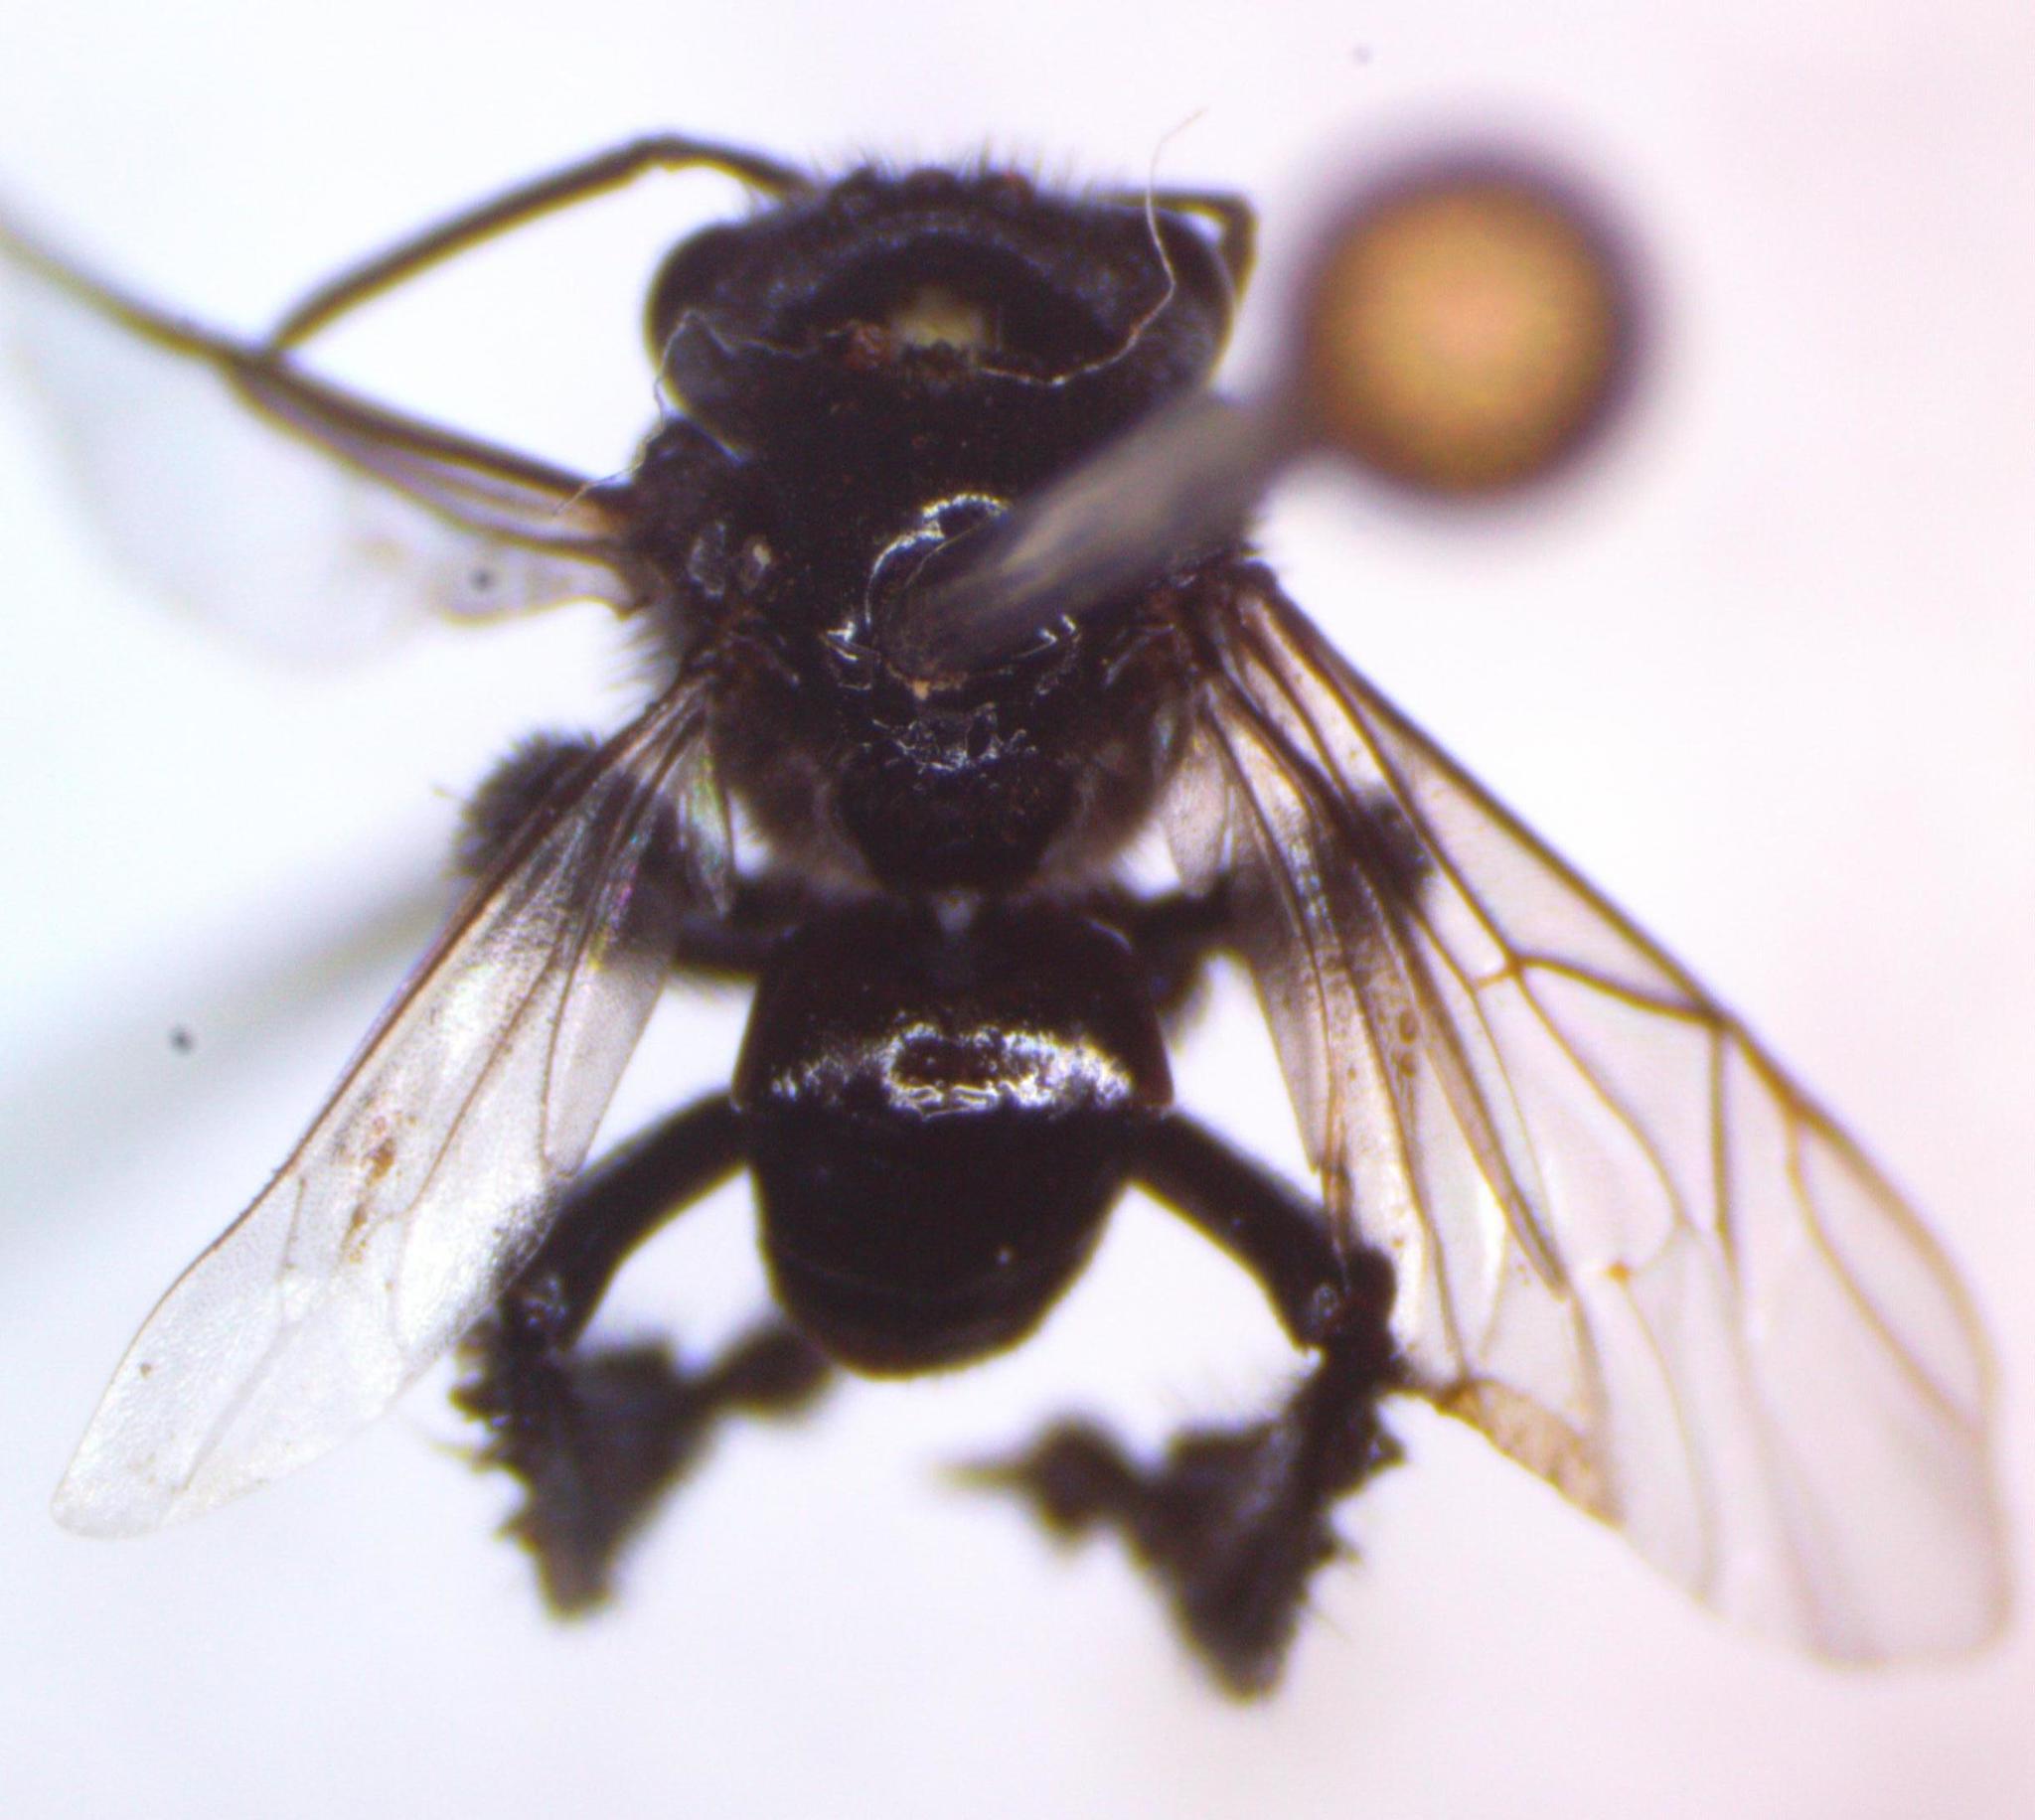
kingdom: Animalia
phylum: Arthropoda
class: Insecta
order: Hymenoptera
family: Apidae
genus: Frieseomelitta
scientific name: Frieseomelitta paupera
